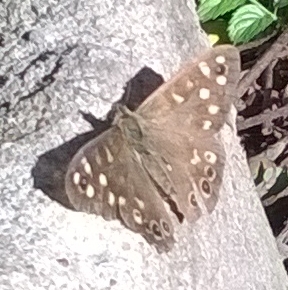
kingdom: Animalia
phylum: Arthropoda
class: Insecta
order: Lepidoptera
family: Nymphalidae
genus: Pararge
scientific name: Pararge aegeria
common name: Speckled wood
